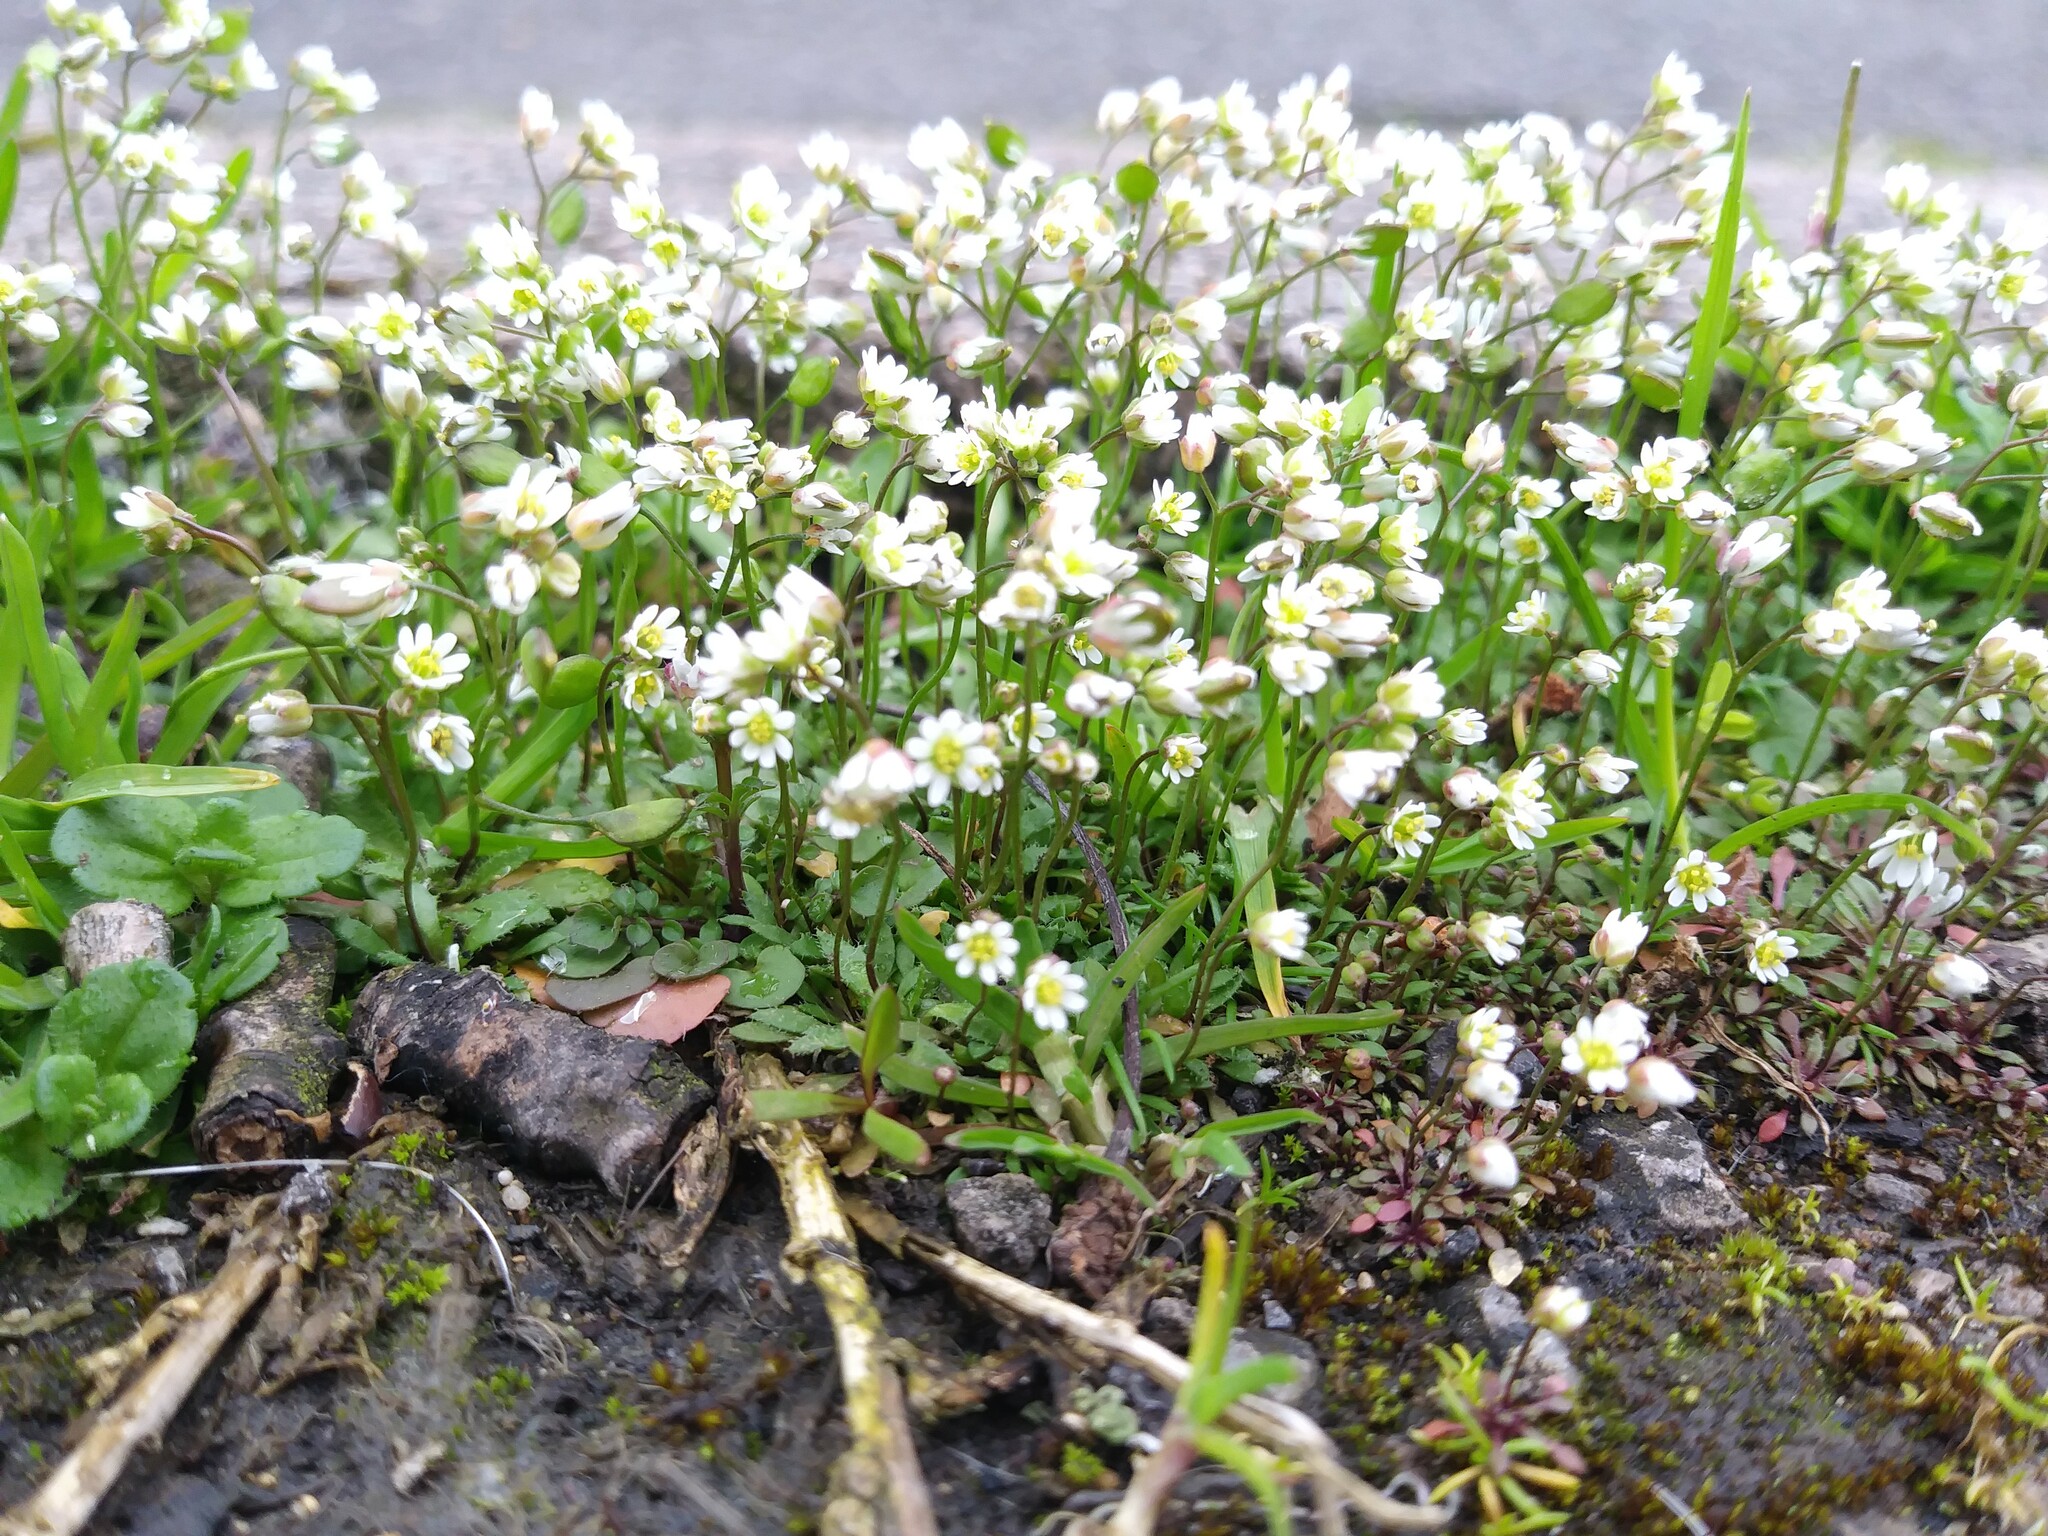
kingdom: Plantae
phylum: Tracheophyta
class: Magnoliopsida
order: Brassicales
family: Brassicaceae
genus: Draba
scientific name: Draba verna
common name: Spring draba
